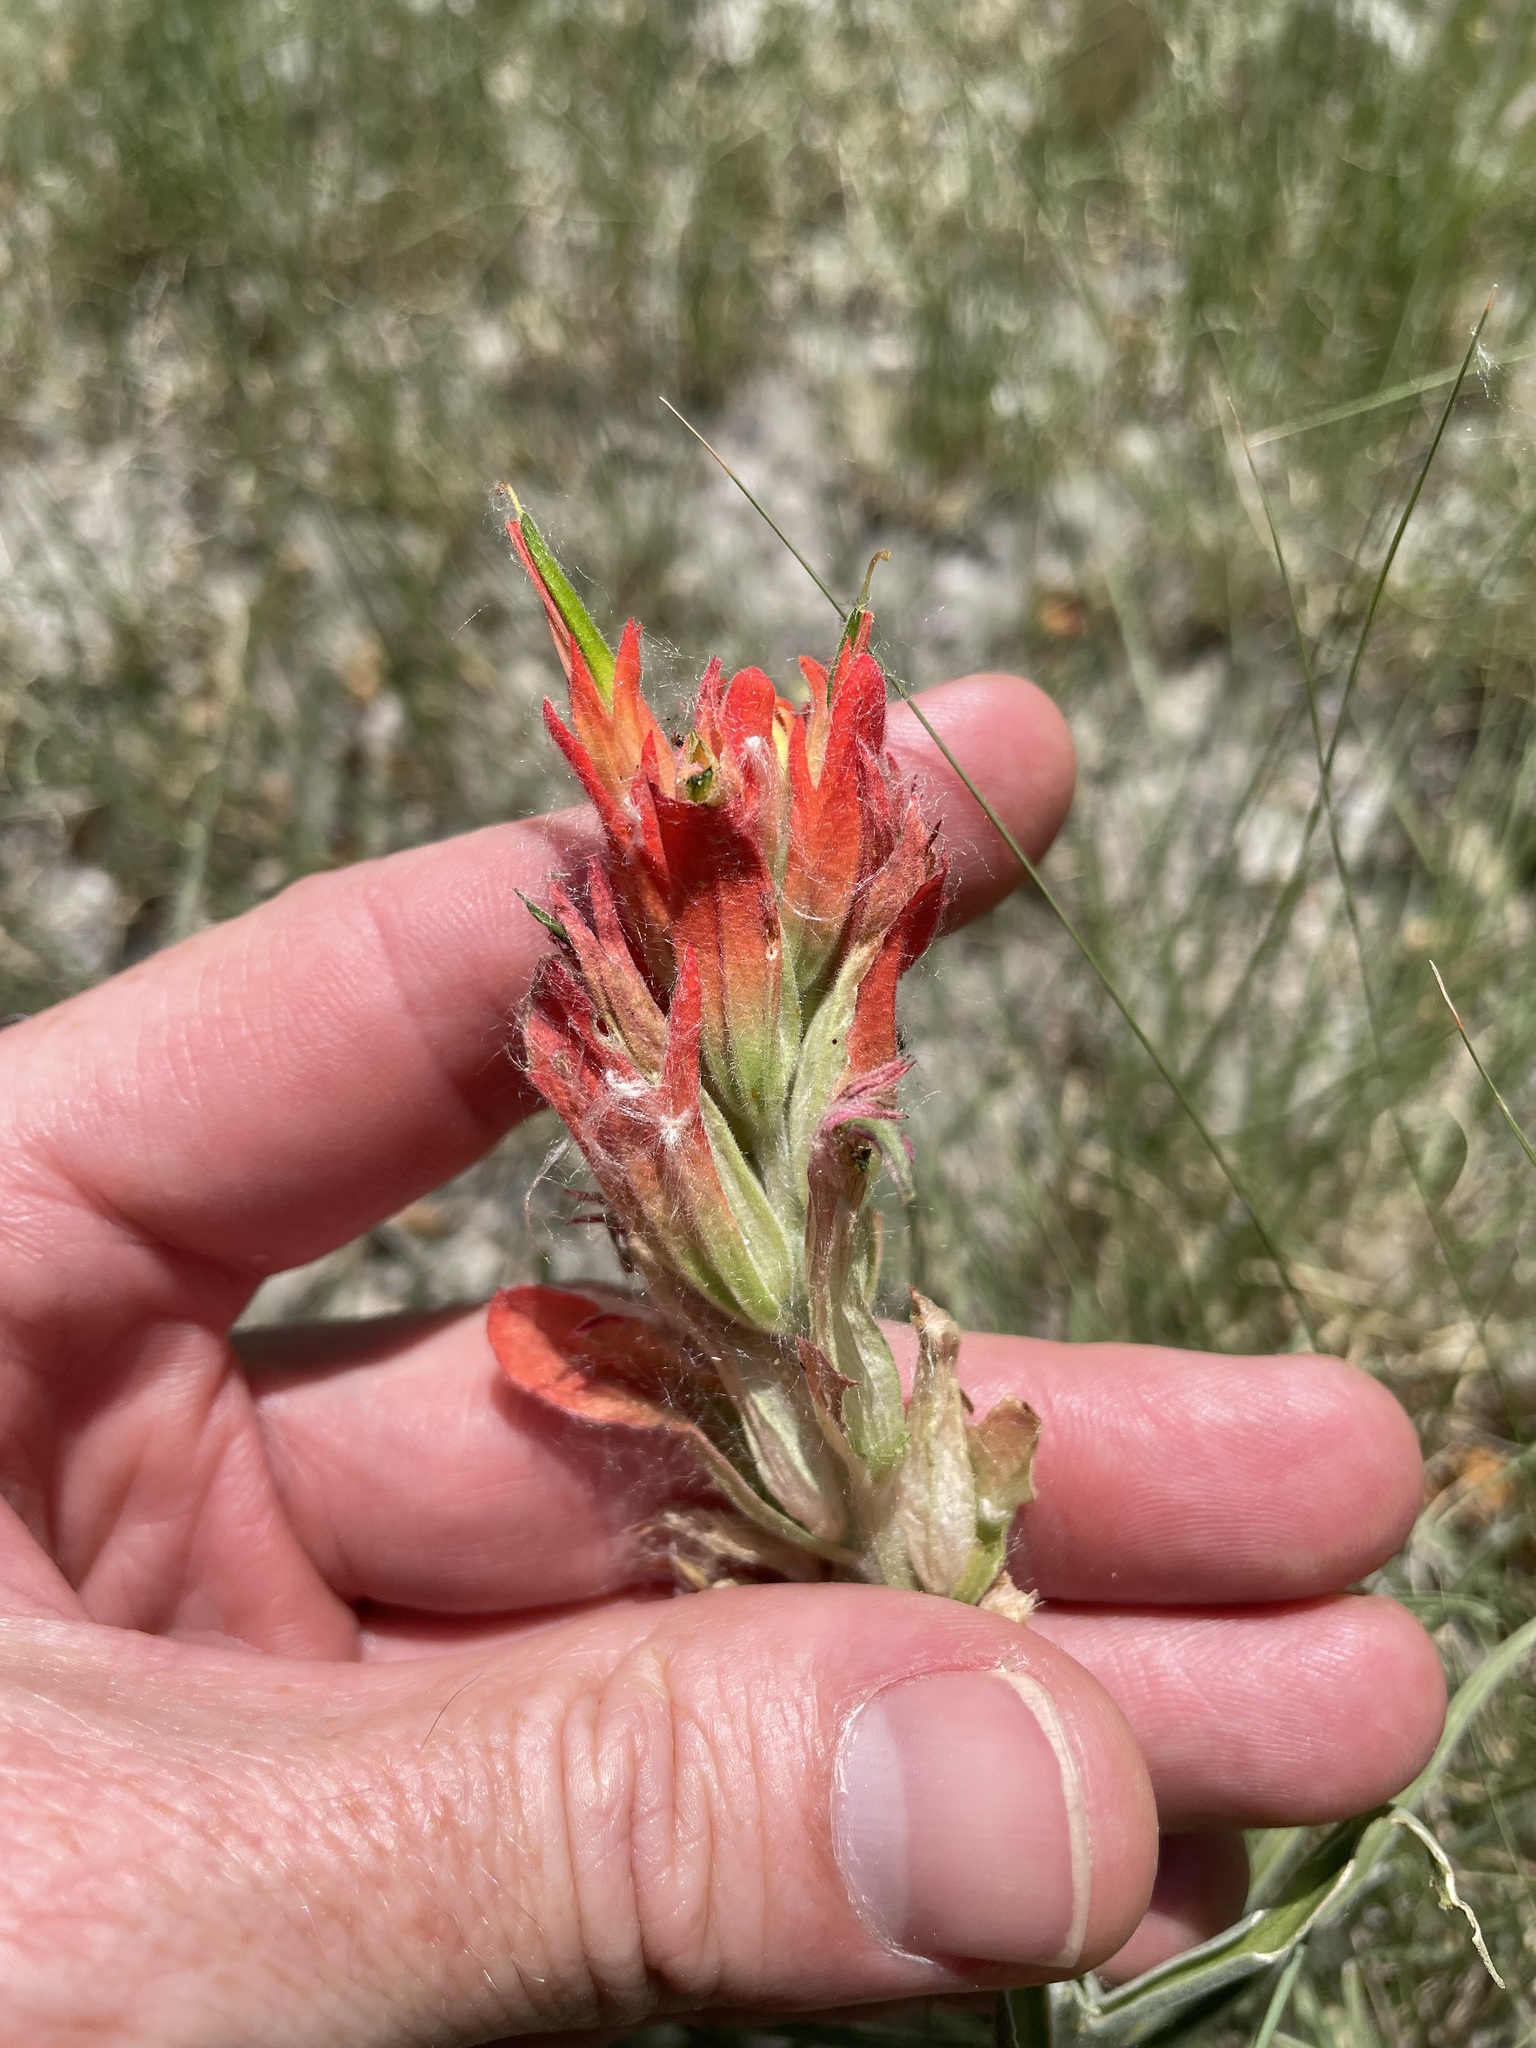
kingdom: Plantae
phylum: Tracheophyta
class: Magnoliopsida
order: Lamiales
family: Orobanchaceae
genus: Castilleja
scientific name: Castilleja integra
